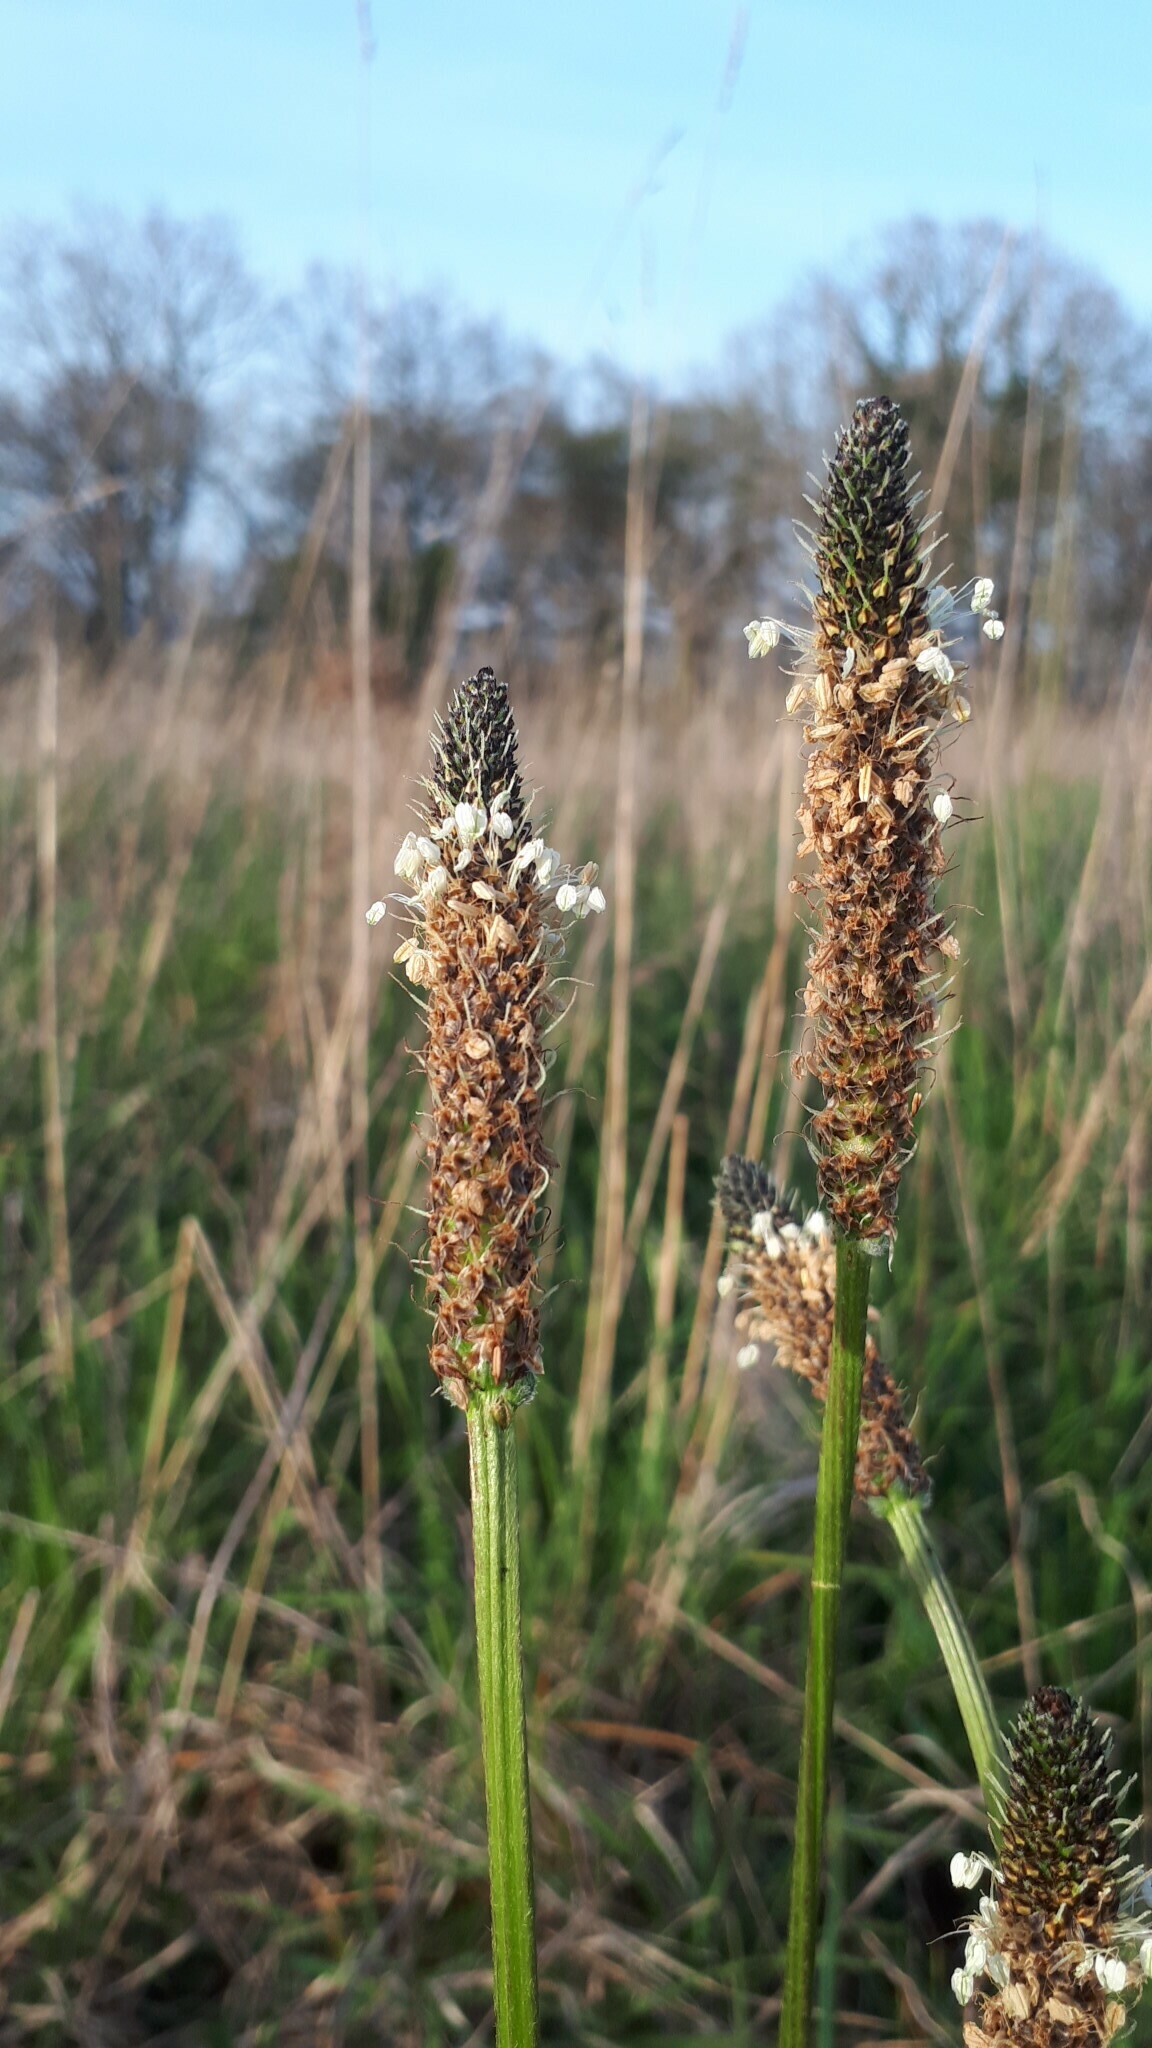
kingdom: Plantae
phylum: Tracheophyta
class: Magnoliopsida
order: Lamiales
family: Plantaginaceae
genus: Plantago
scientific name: Plantago lanceolata
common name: Ribwort plantain
